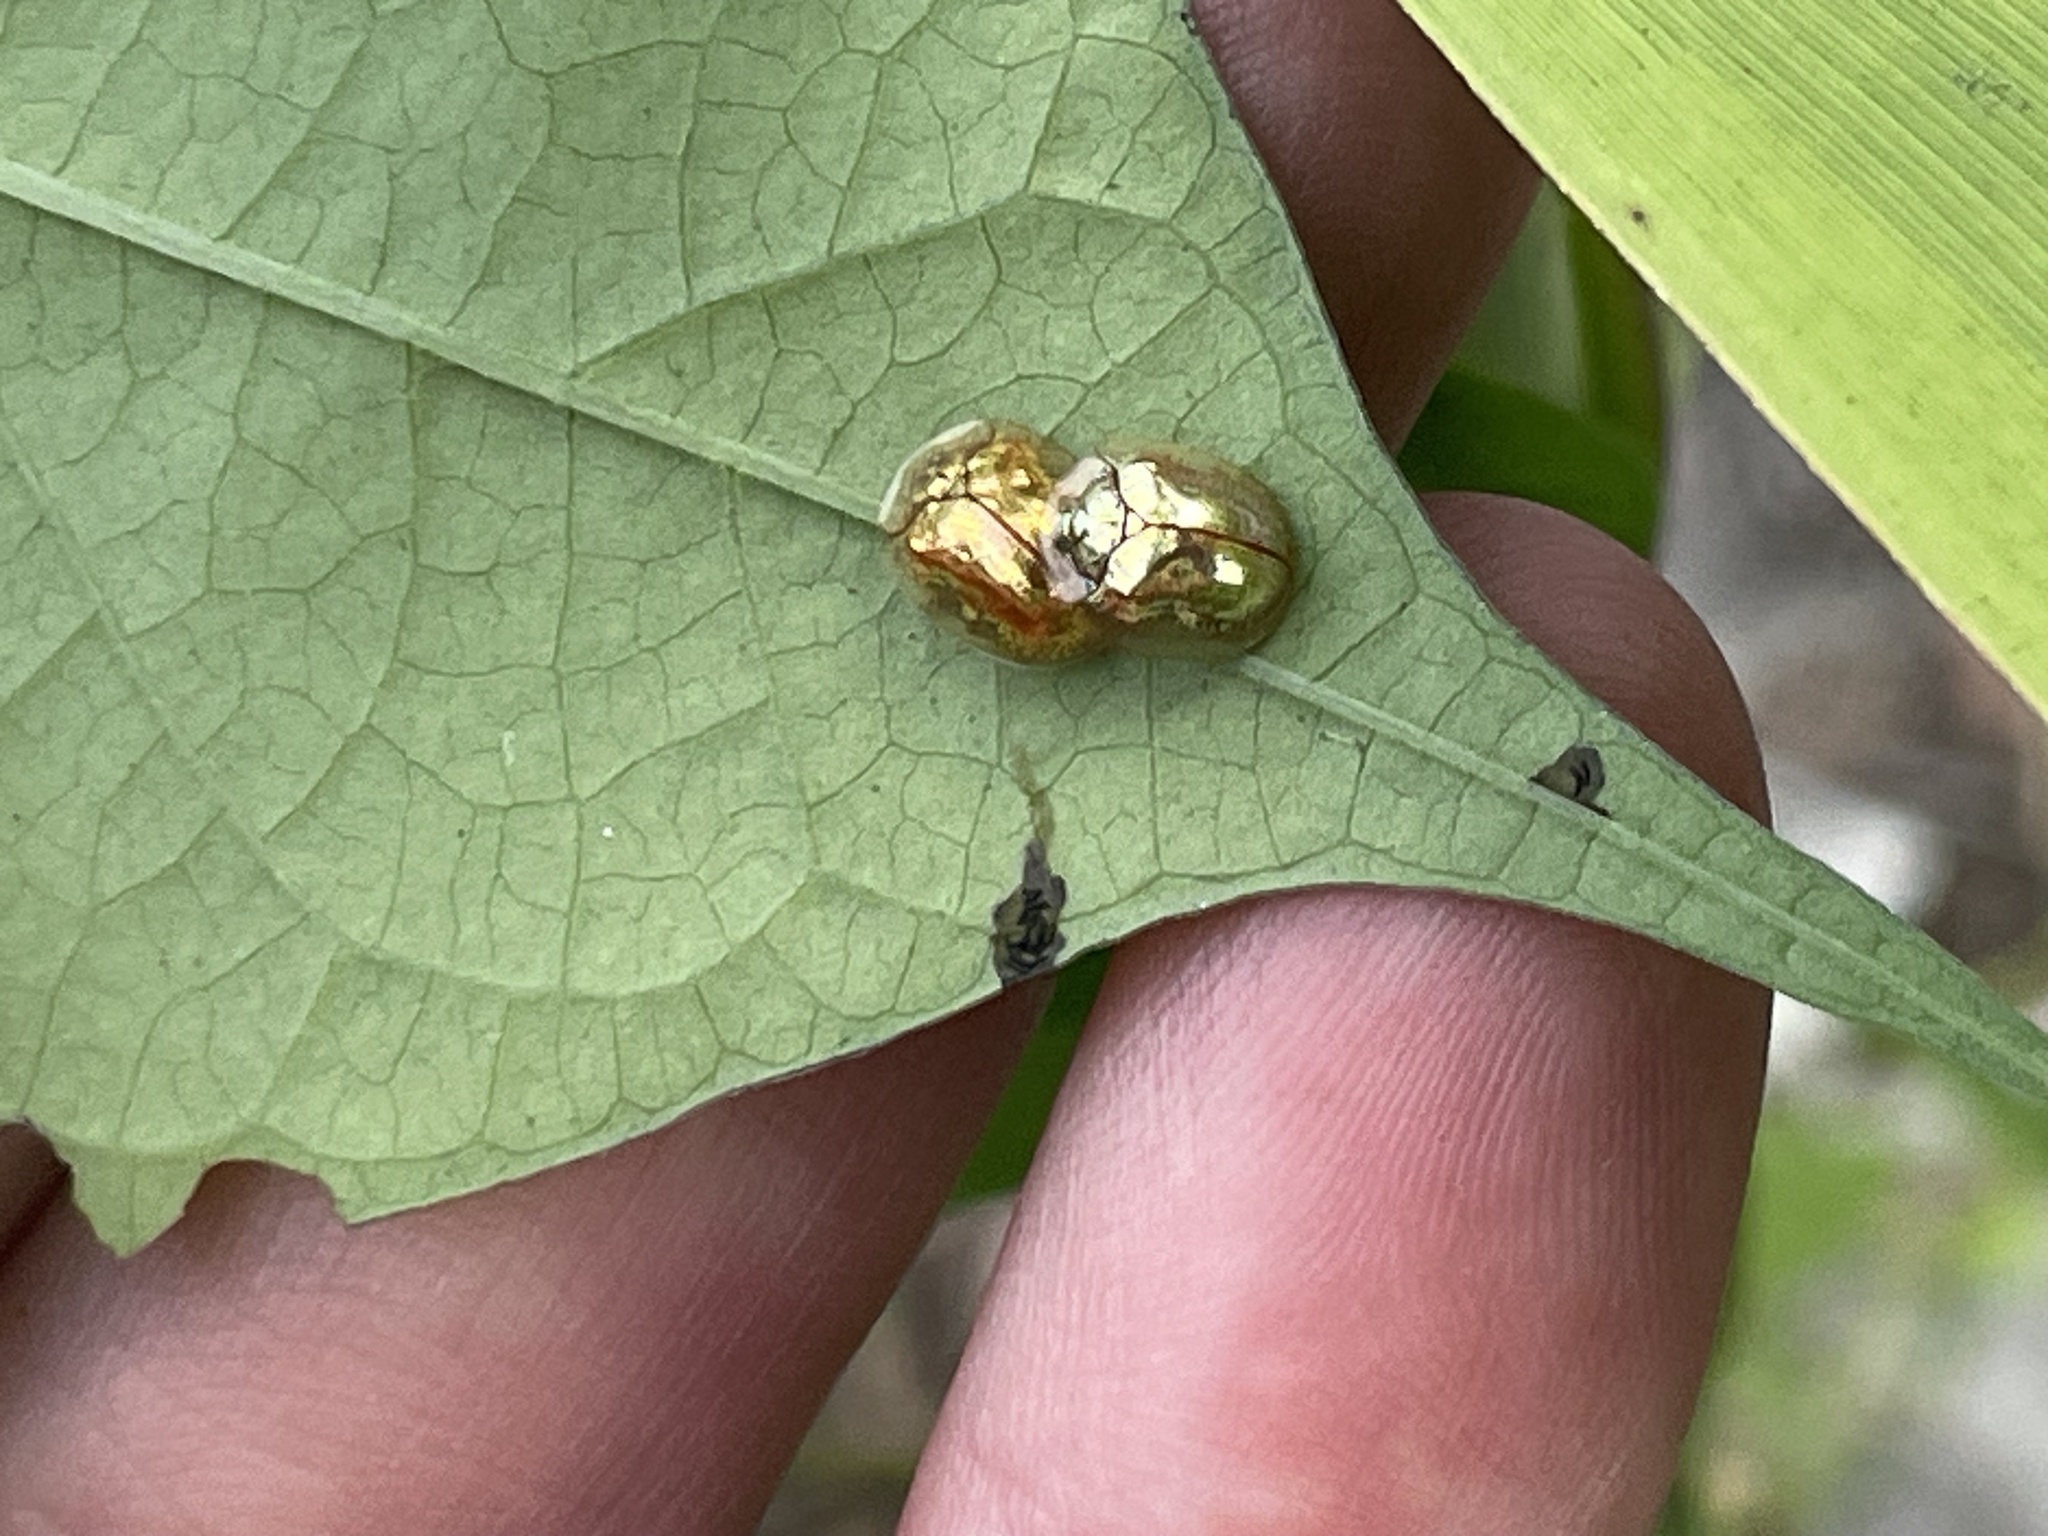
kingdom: Animalia
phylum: Arthropoda
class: Insecta
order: Coleoptera
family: Chrysomelidae
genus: Charidotella
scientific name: Charidotella sexpunctata
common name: Golden tortoise beetle
